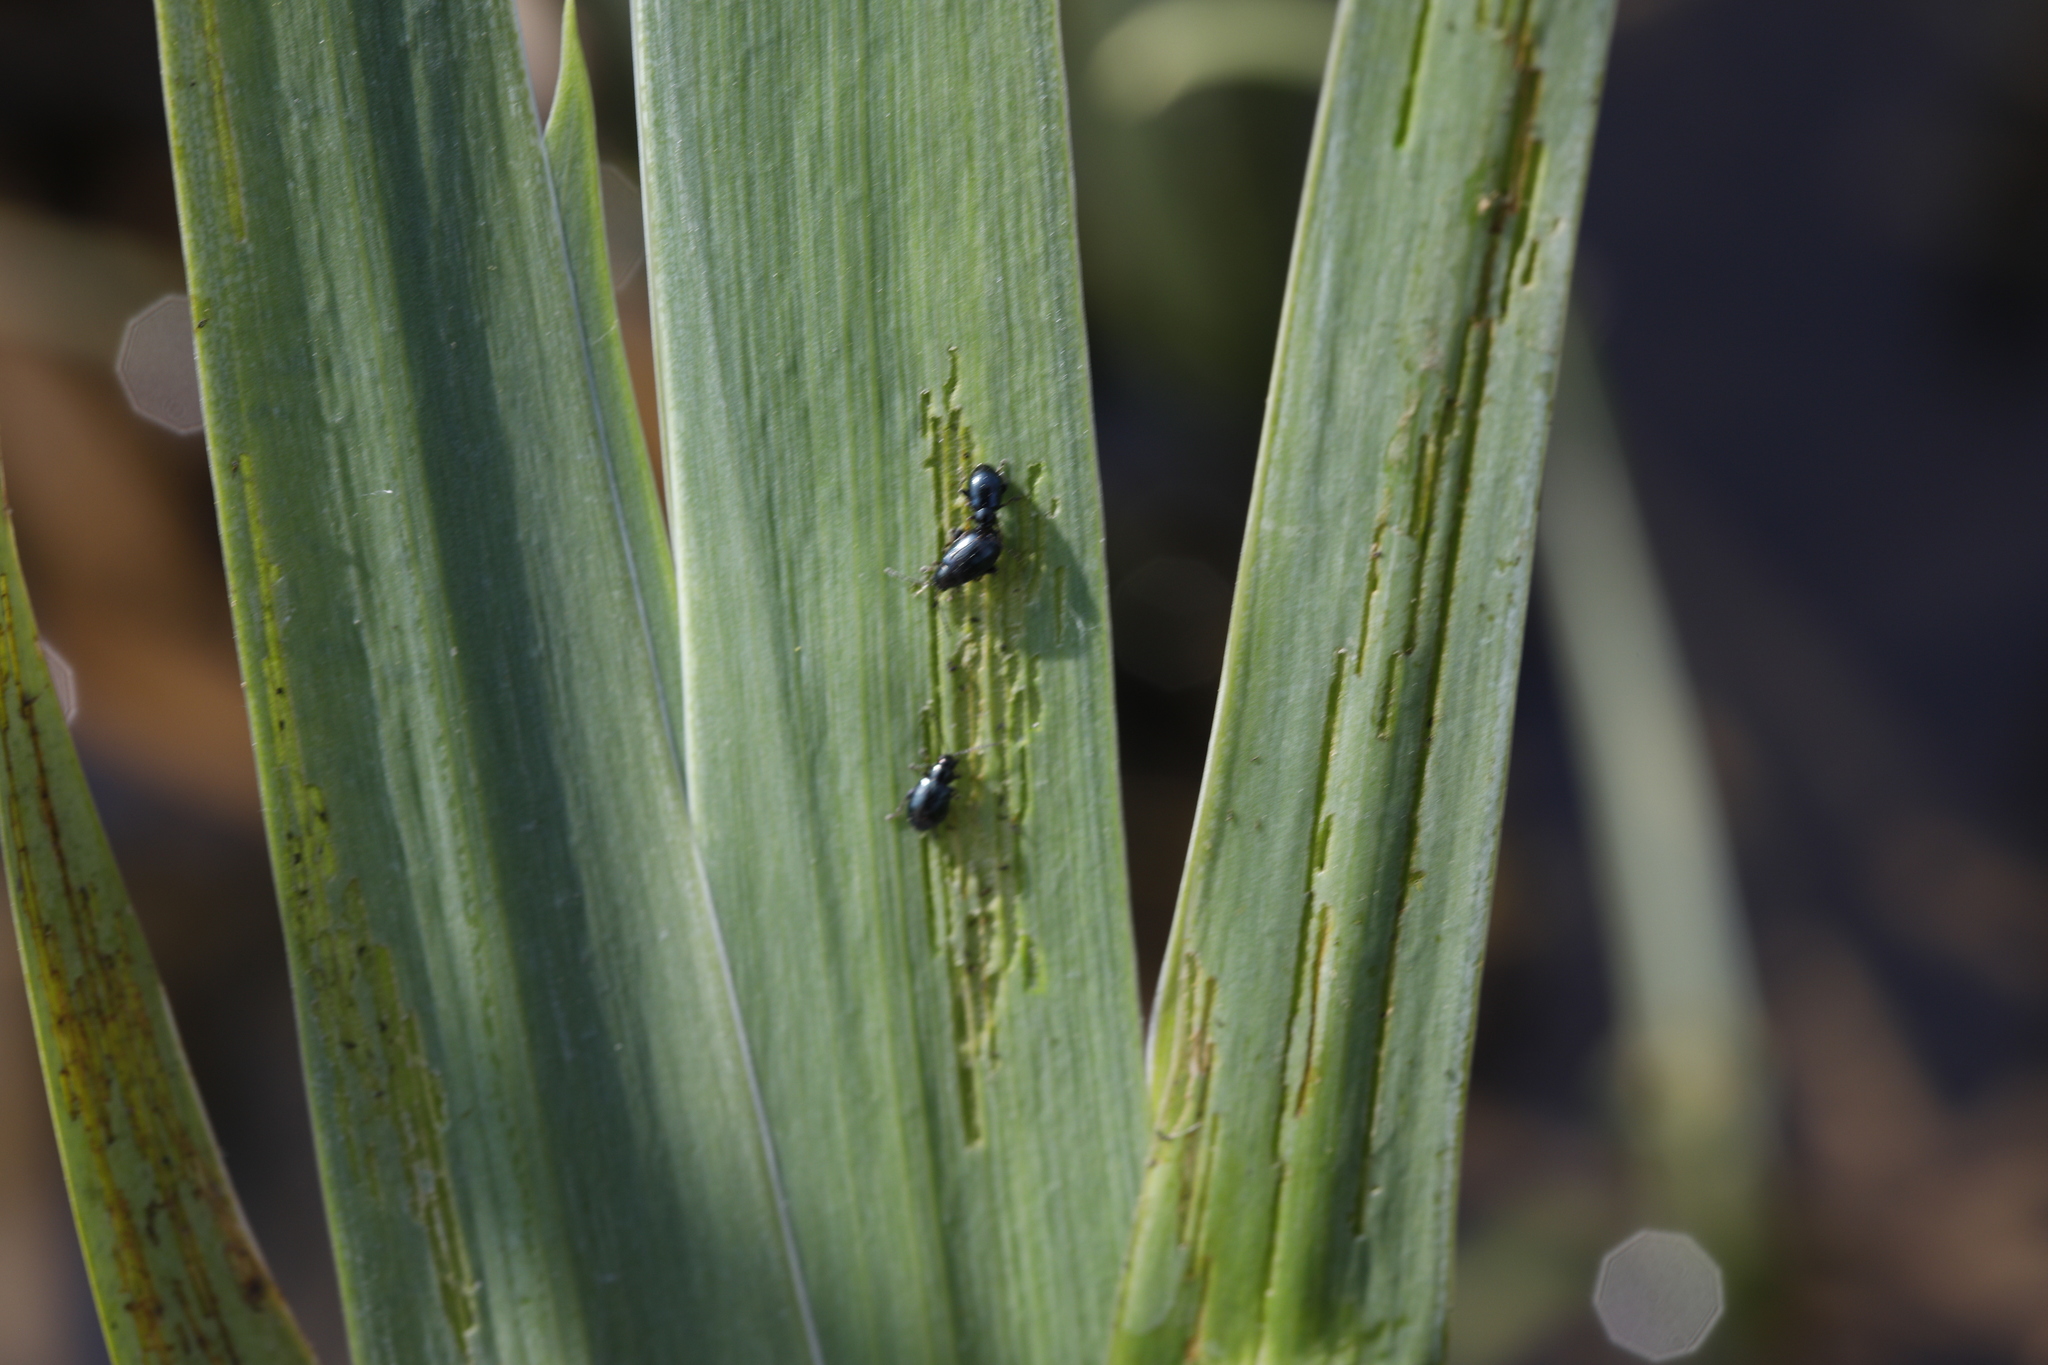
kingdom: Animalia
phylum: Arthropoda
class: Insecta
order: Coleoptera
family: Chrysomelidae
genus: Aphthona
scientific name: Aphthona nonstriata
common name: Iris flea beetle
